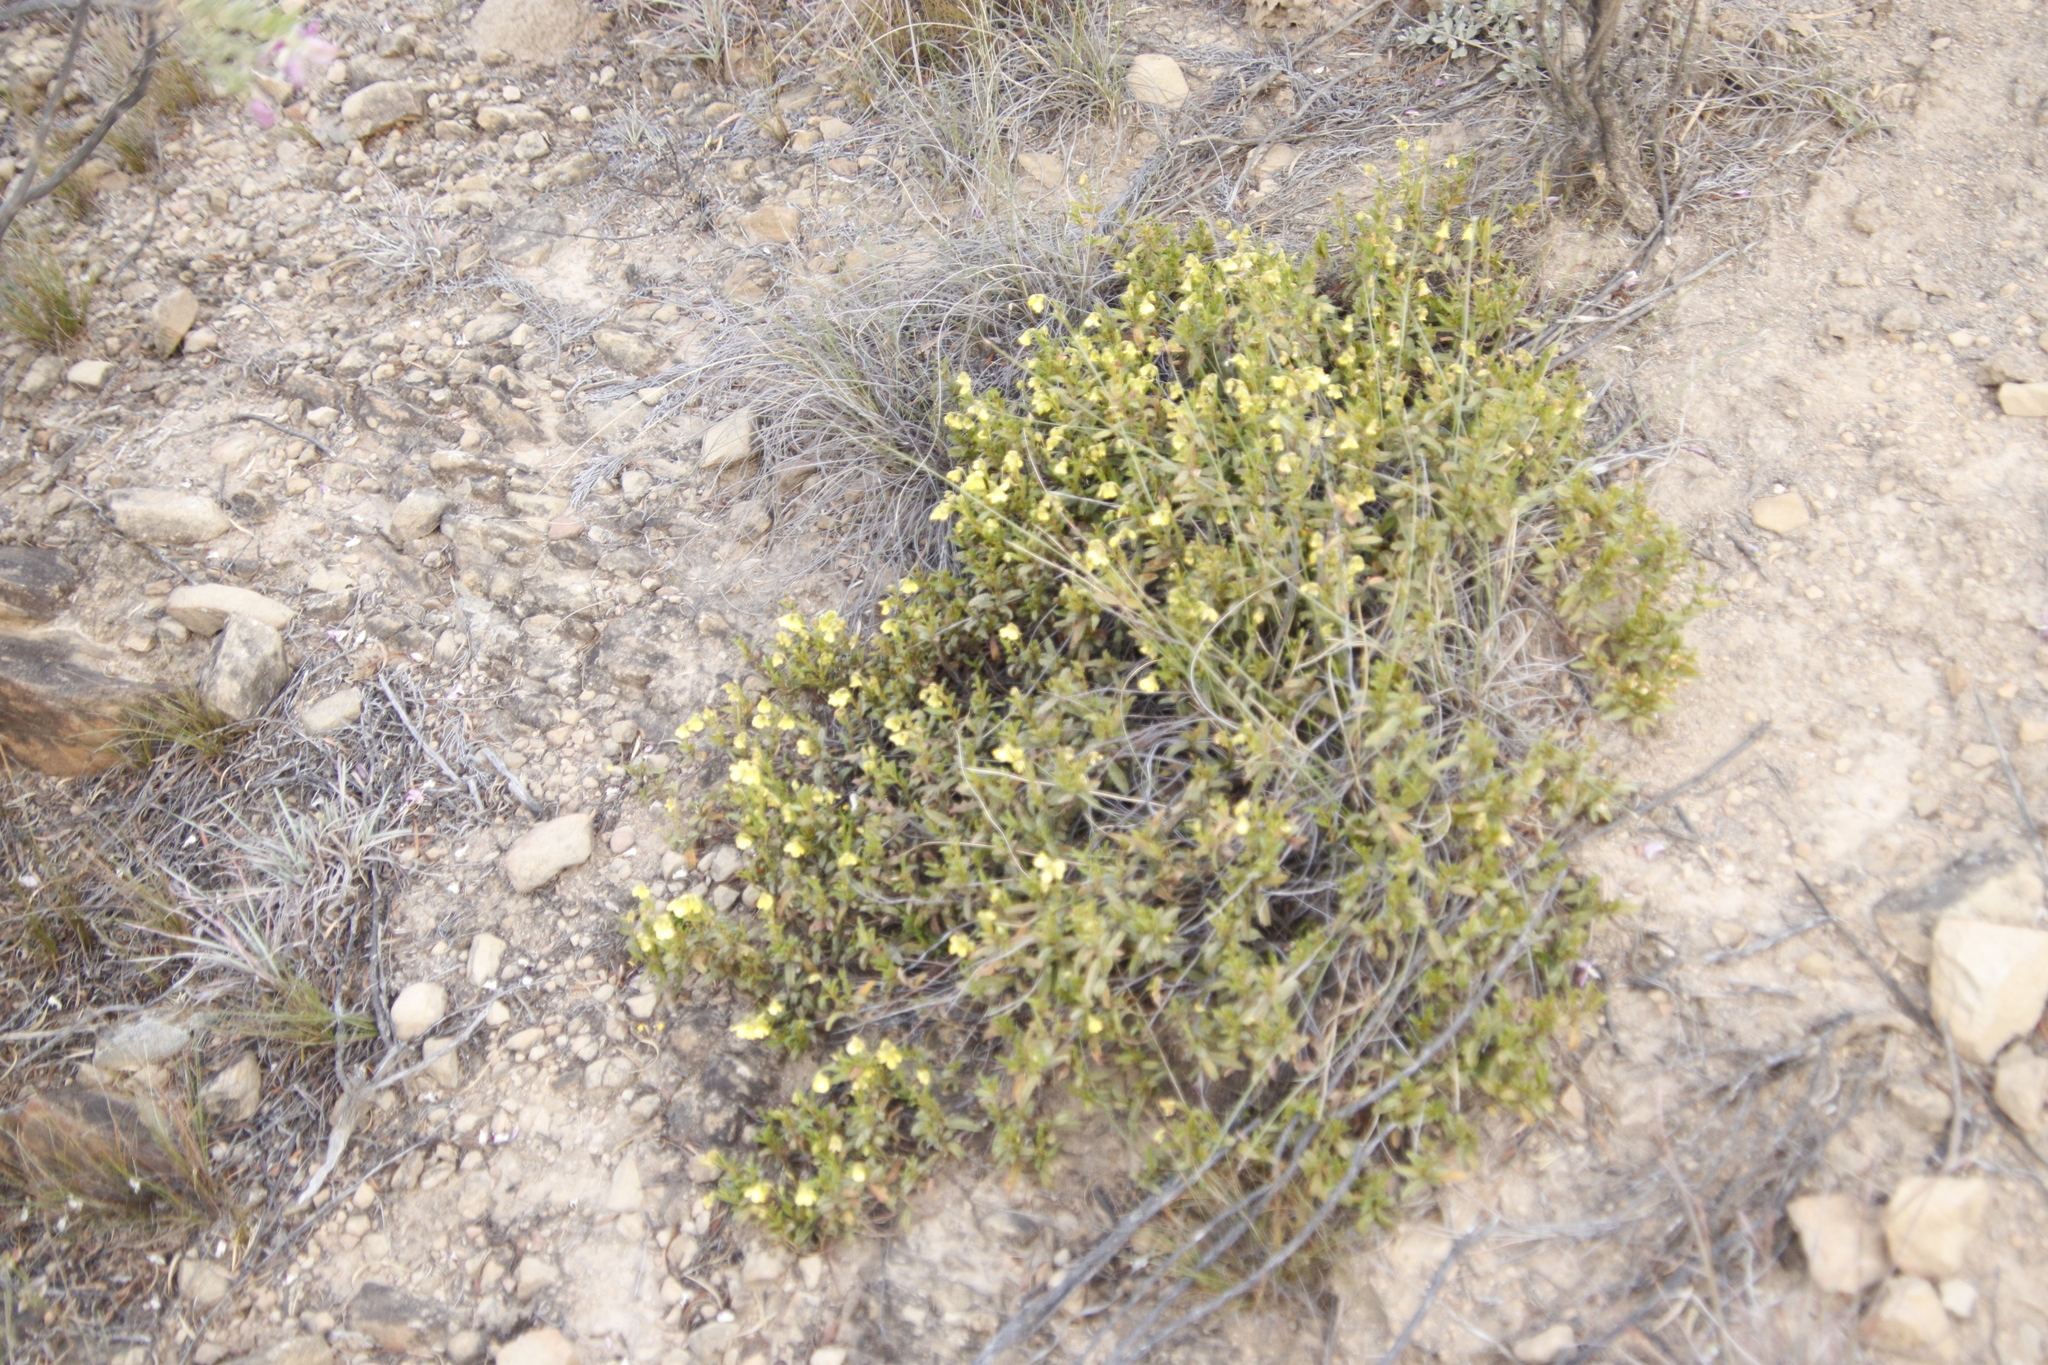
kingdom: Plantae
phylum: Tracheophyta
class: Magnoliopsida
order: Malvales
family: Malvaceae
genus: Hermannia
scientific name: Hermannia saccifera
